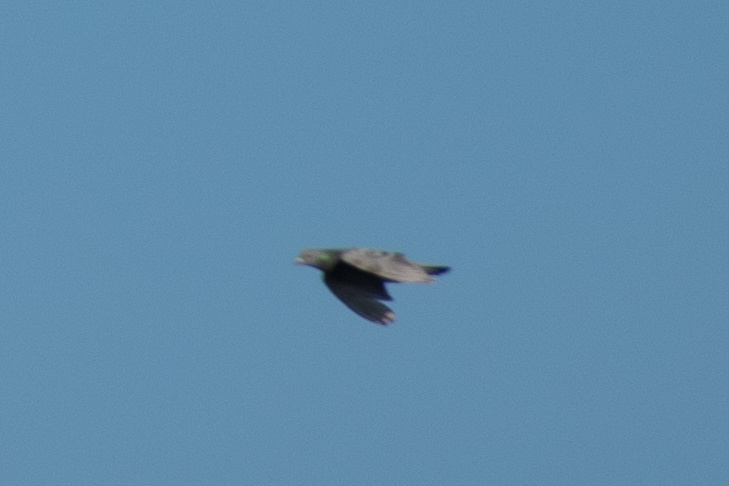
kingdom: Animalia
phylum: Chordata
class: Aves
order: Columbiformes
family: Columbidae
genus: Columba
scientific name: Columba livia
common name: Rock pigeon
